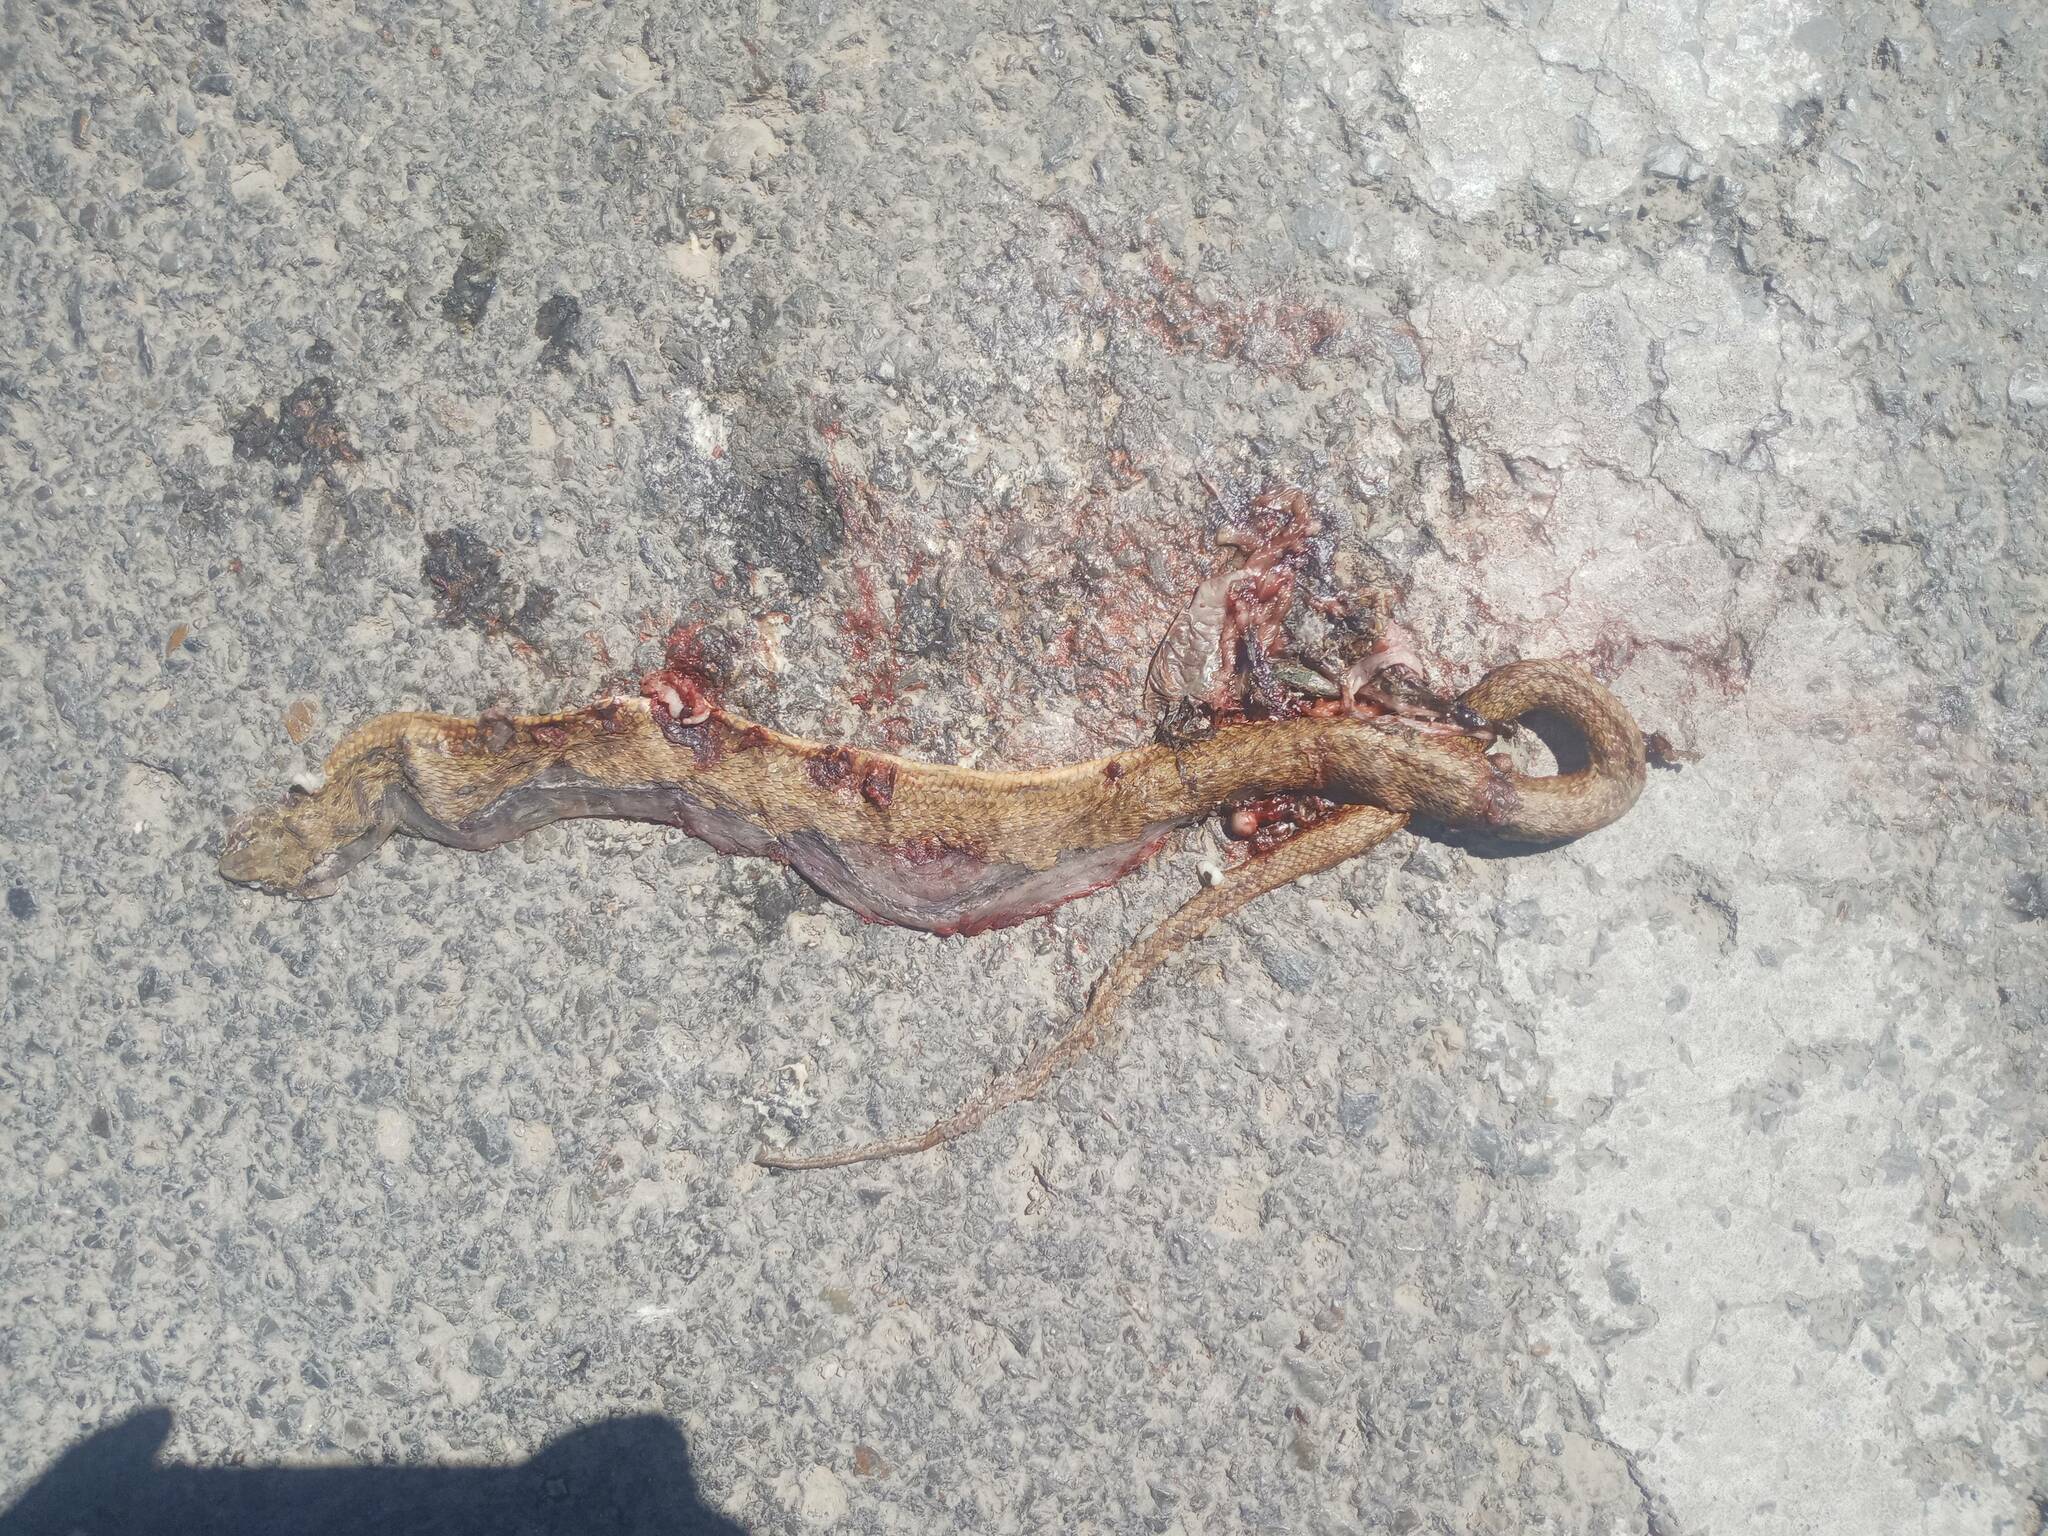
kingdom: Animalia
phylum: Chordata
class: Squamata
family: Psammophiidae
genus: Malpolon
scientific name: Malpolon insignitus
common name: Eastern montpellier snake
